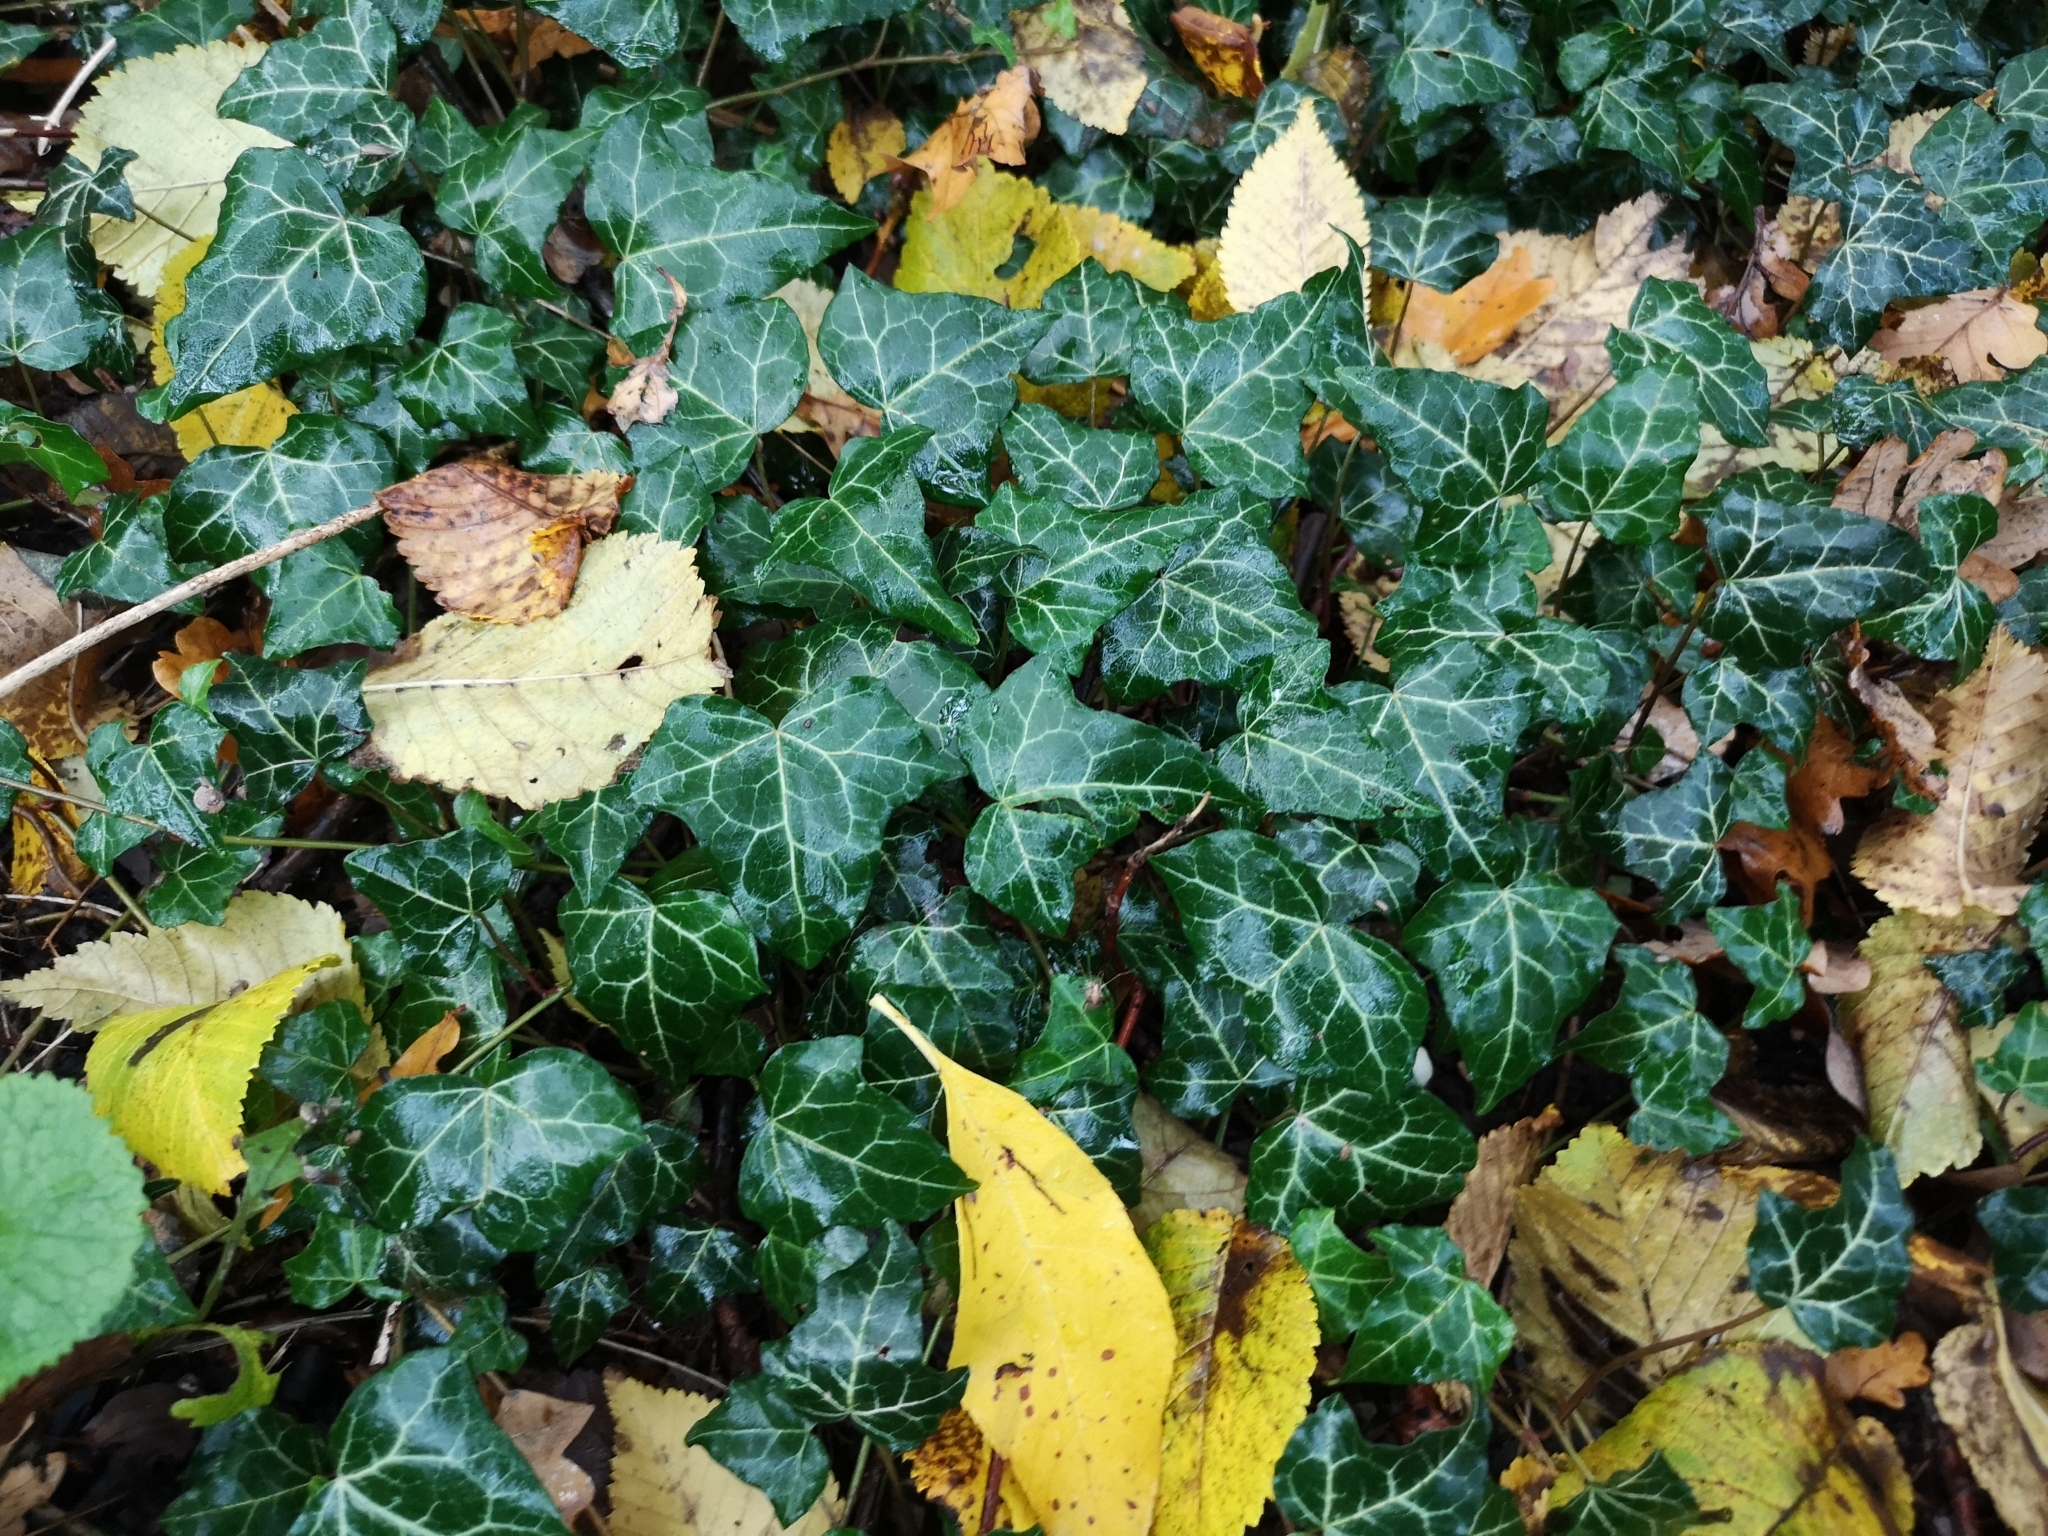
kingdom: Plantae
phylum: Tracheophyta
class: Magnoliopsida
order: Apiales
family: Araliaceae
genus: Hedera
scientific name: Hedera helix
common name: Ivy
